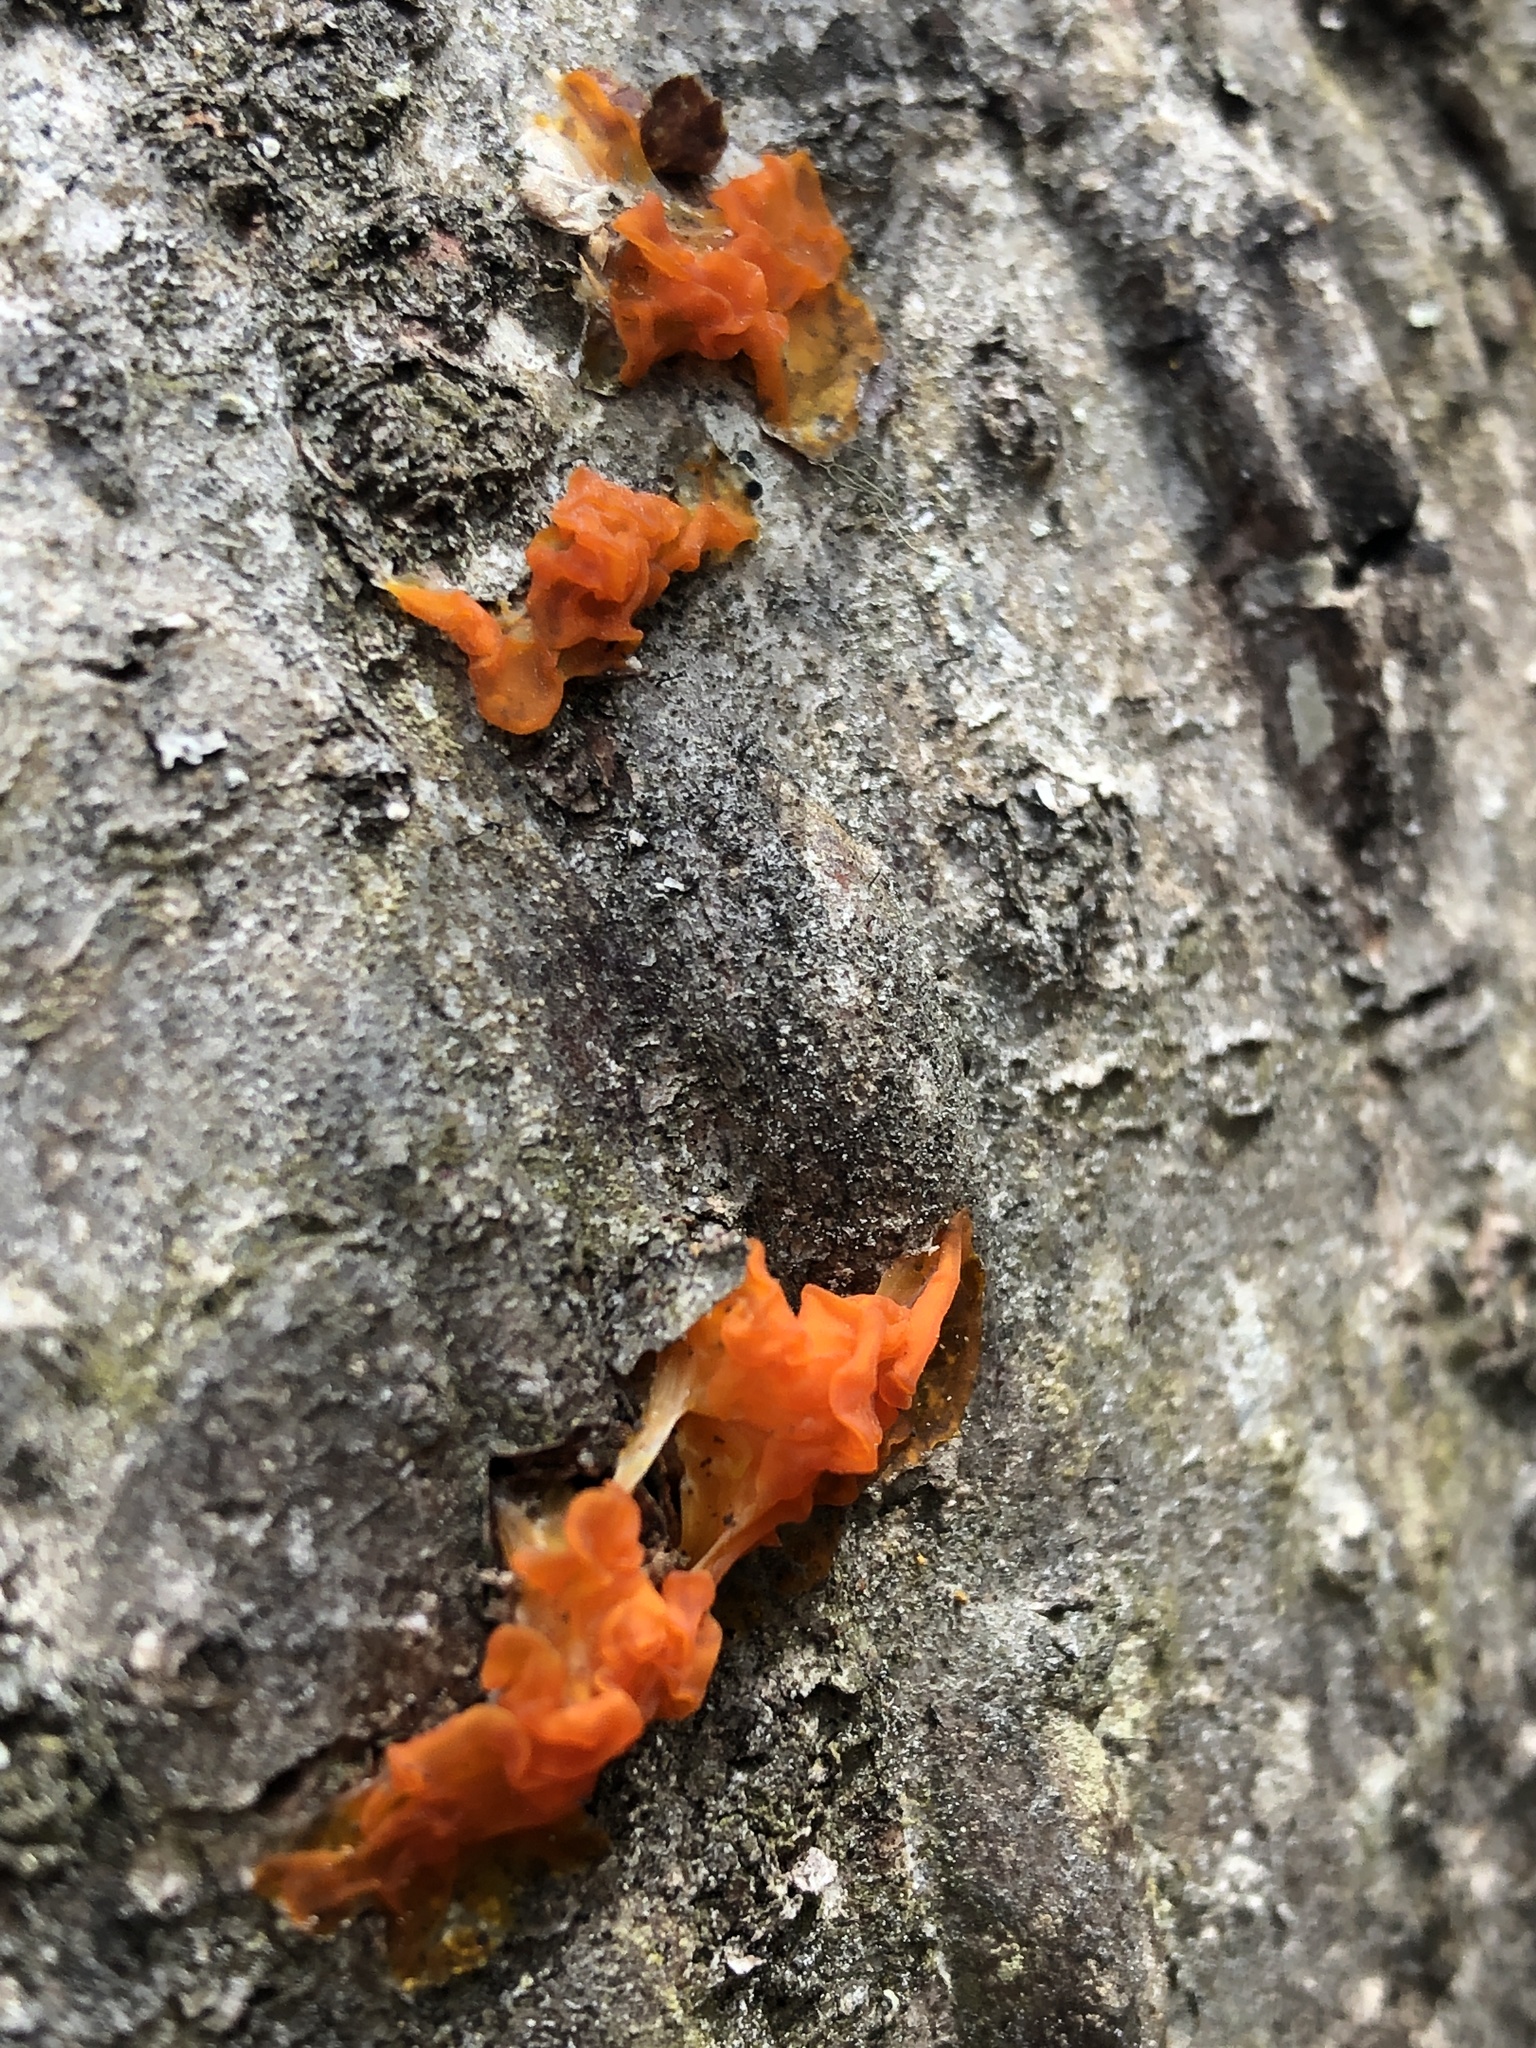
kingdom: Fungi
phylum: Basidiomycota
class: Dacrymycetes
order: Dacrymycetales
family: Dacrymycetaceae
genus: Dacrymyces
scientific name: Dacrymyces chrysospermus
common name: Orange jelly spot
